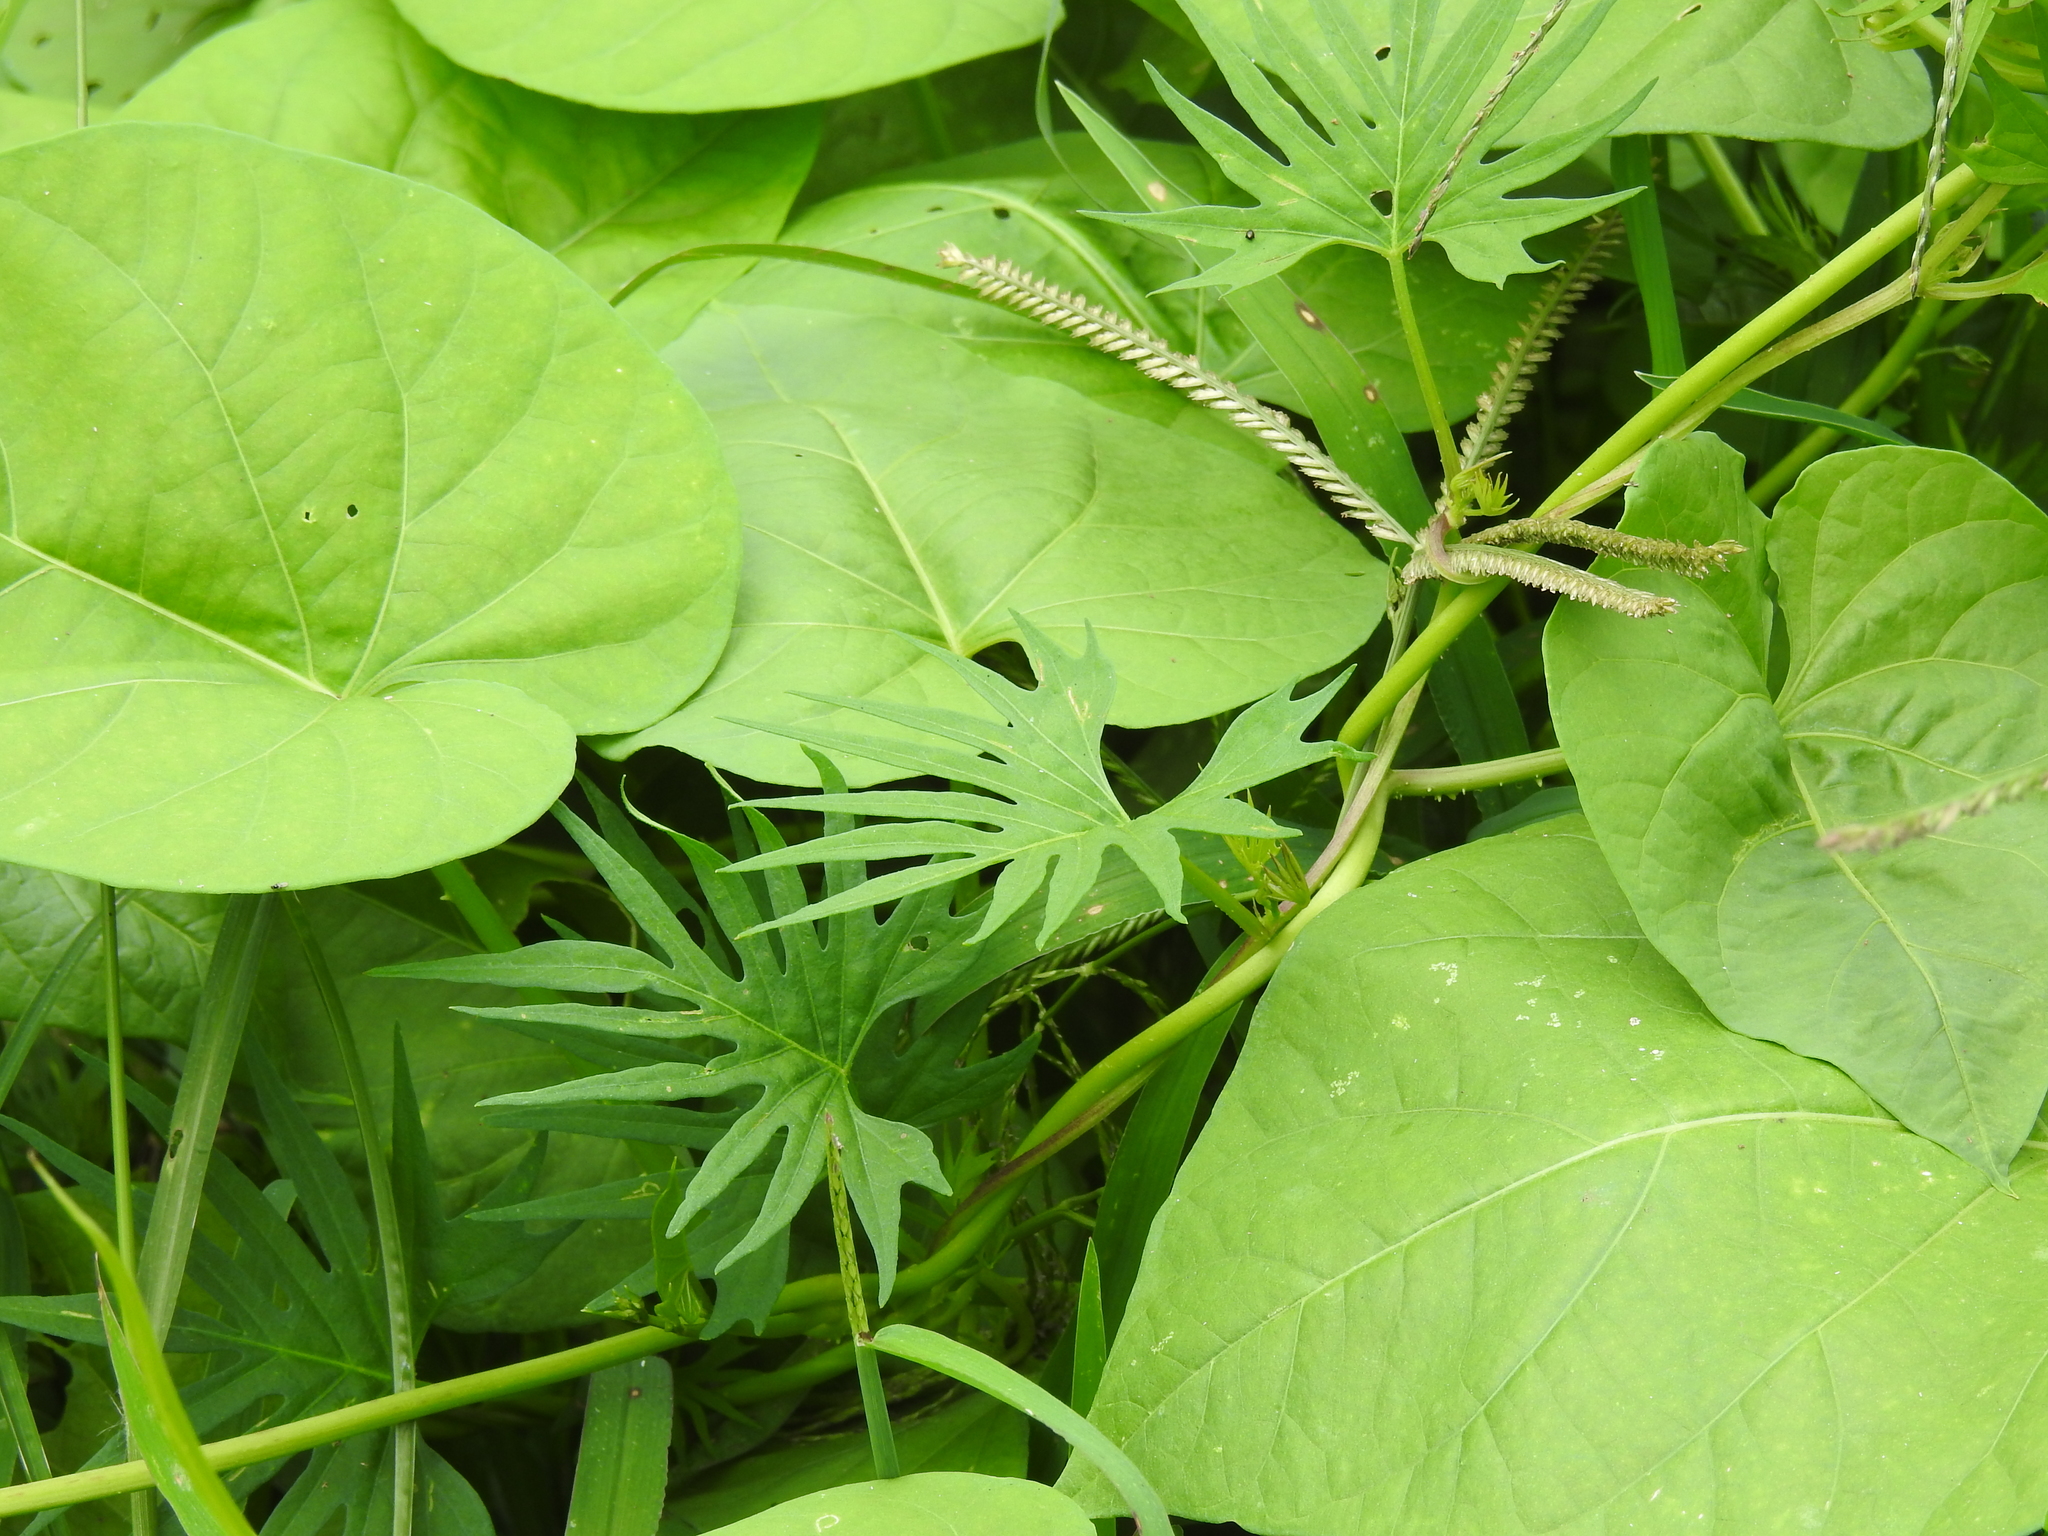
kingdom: Plantae
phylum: Tracheophyta
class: Magnoliopsida
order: Solanales
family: Convolvulaceae
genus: Ipomoea
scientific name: Ipomoea multifida
